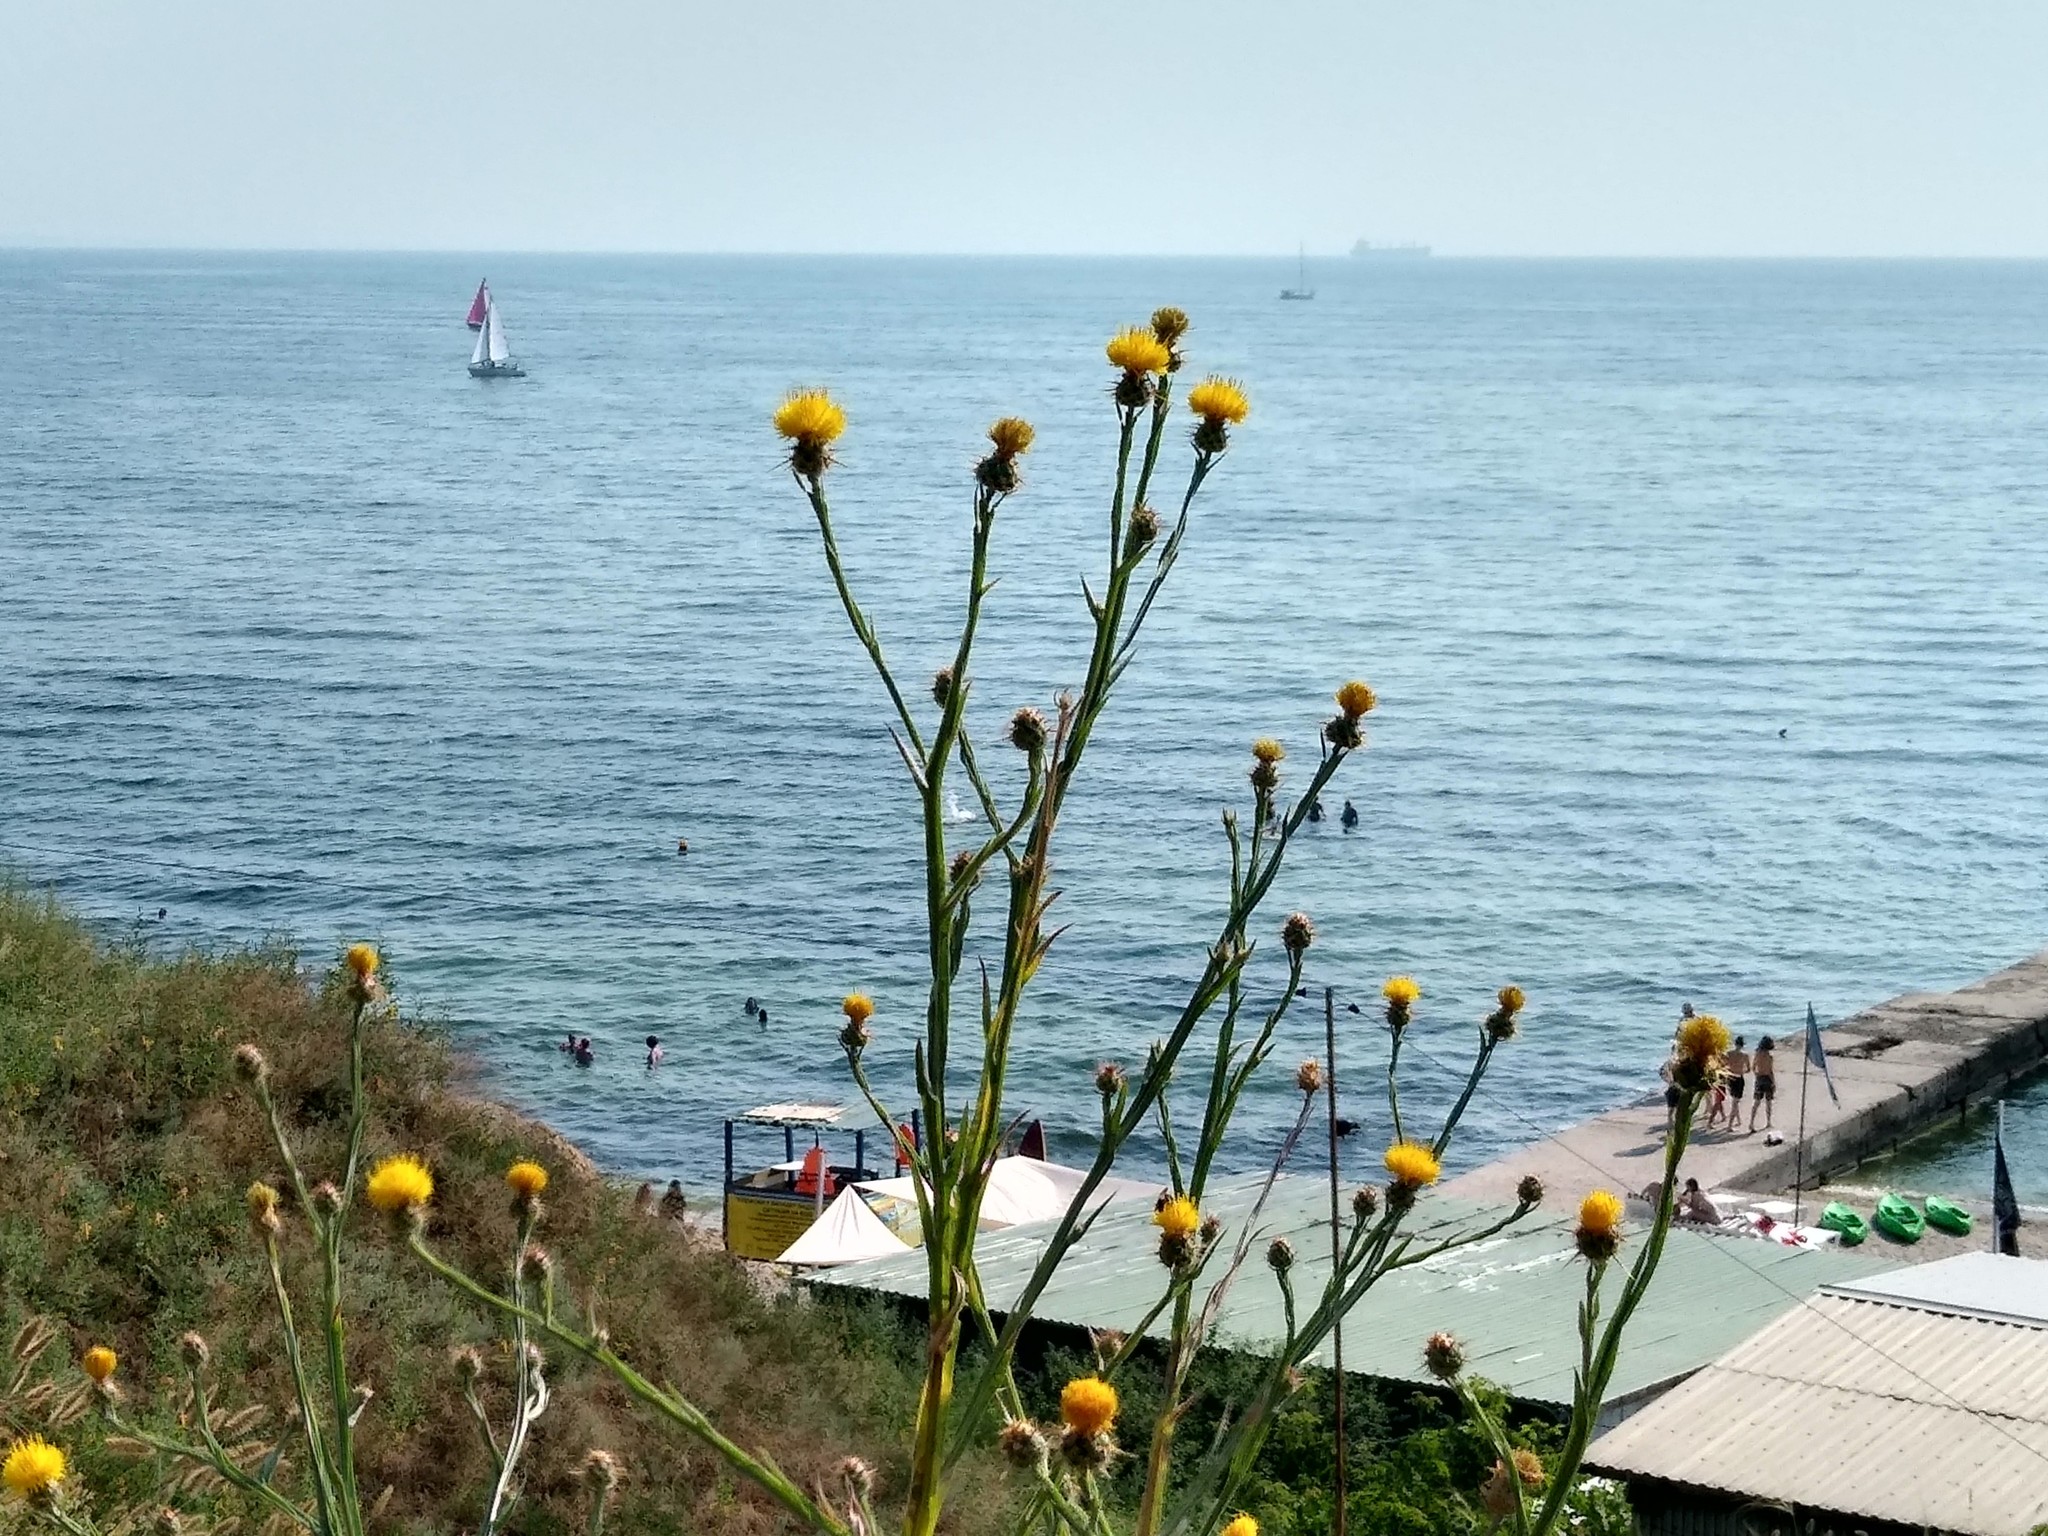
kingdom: Plantae
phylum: Tracheophyta
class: Magnoliopsida
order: Asterales
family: Asteraceae
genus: Centaurea
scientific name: Centaurea solstitialis
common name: Yellow star-thistle
